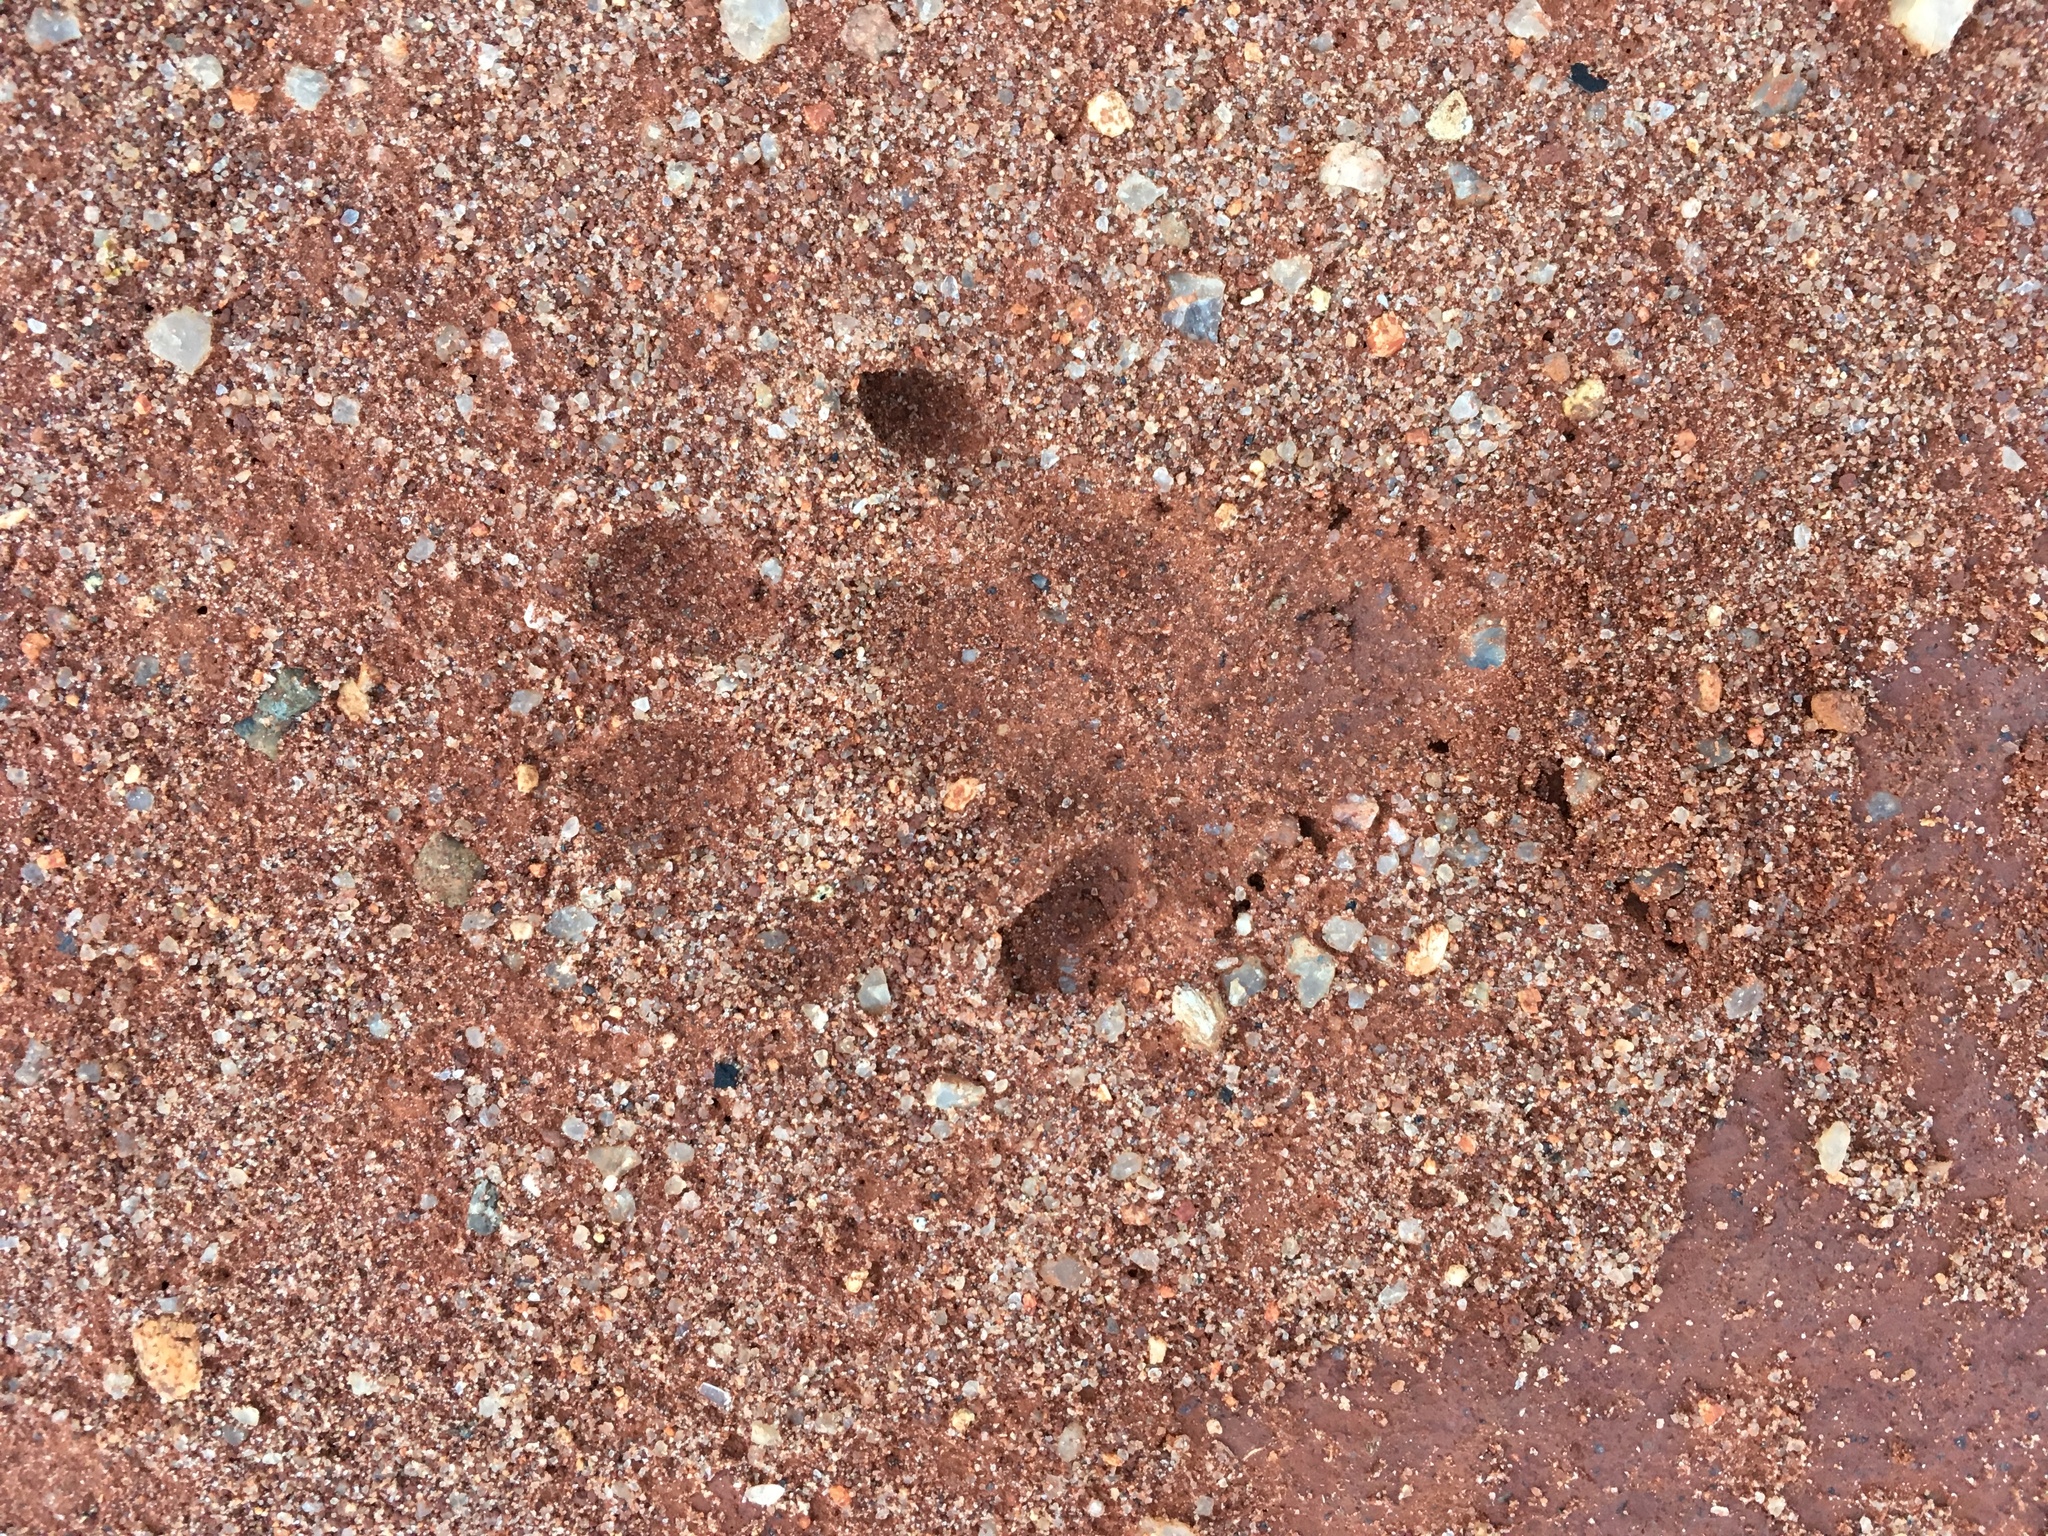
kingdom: Animalia
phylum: Chordata
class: Mammalia
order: Carnivora
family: Mustelidae
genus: Aonyx
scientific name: Aonyx capensis
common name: African clawless otter
